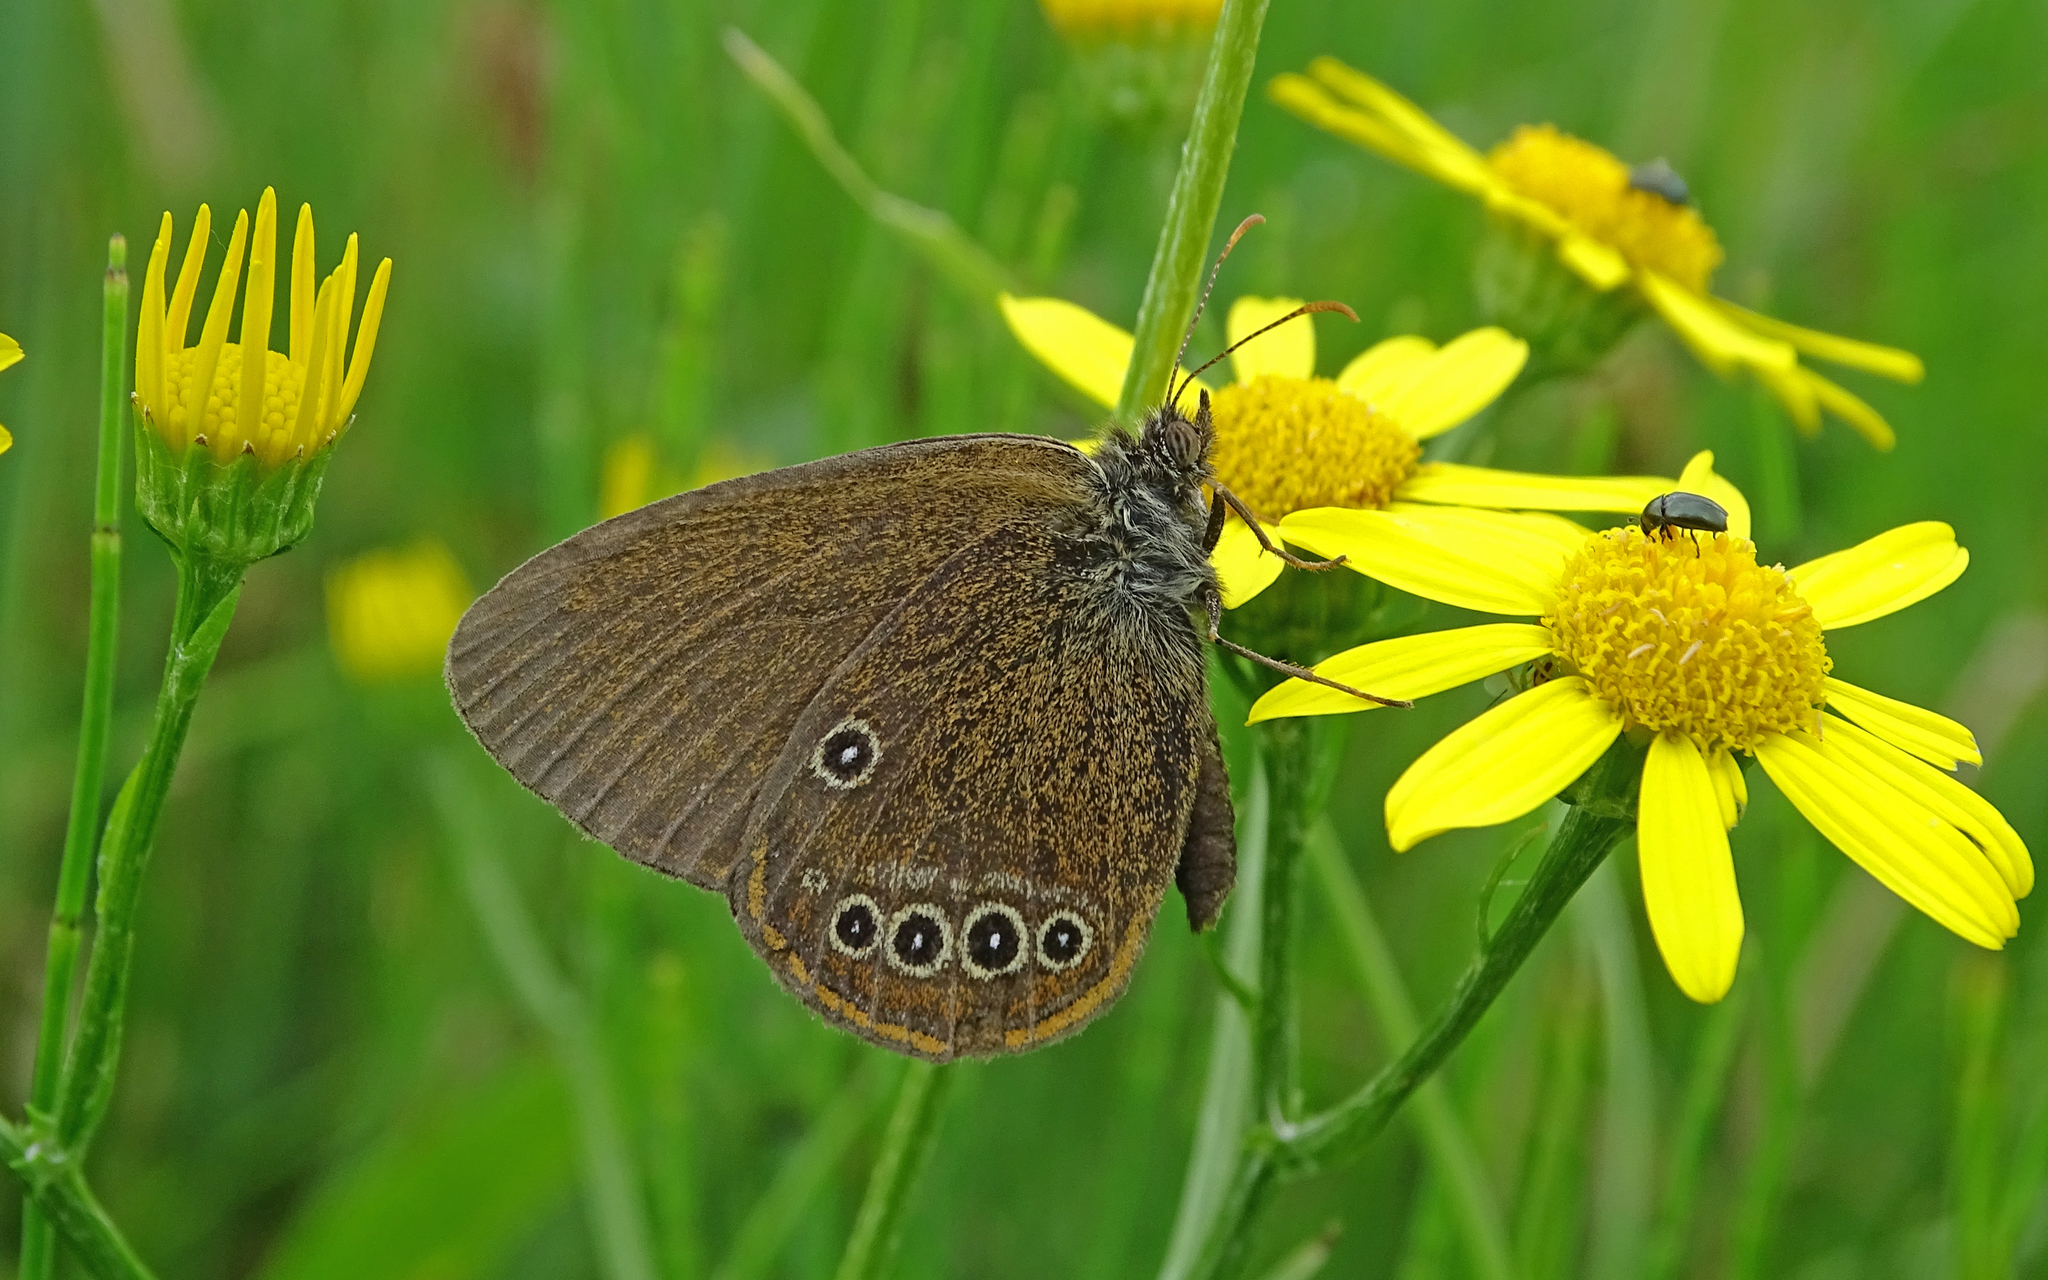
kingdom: Animalia
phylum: Arthropoda
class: Insecta
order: Lepidoptera
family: Nymphalidae
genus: Coenonympha
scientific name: Coenonympha oedippus
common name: False ringlet
